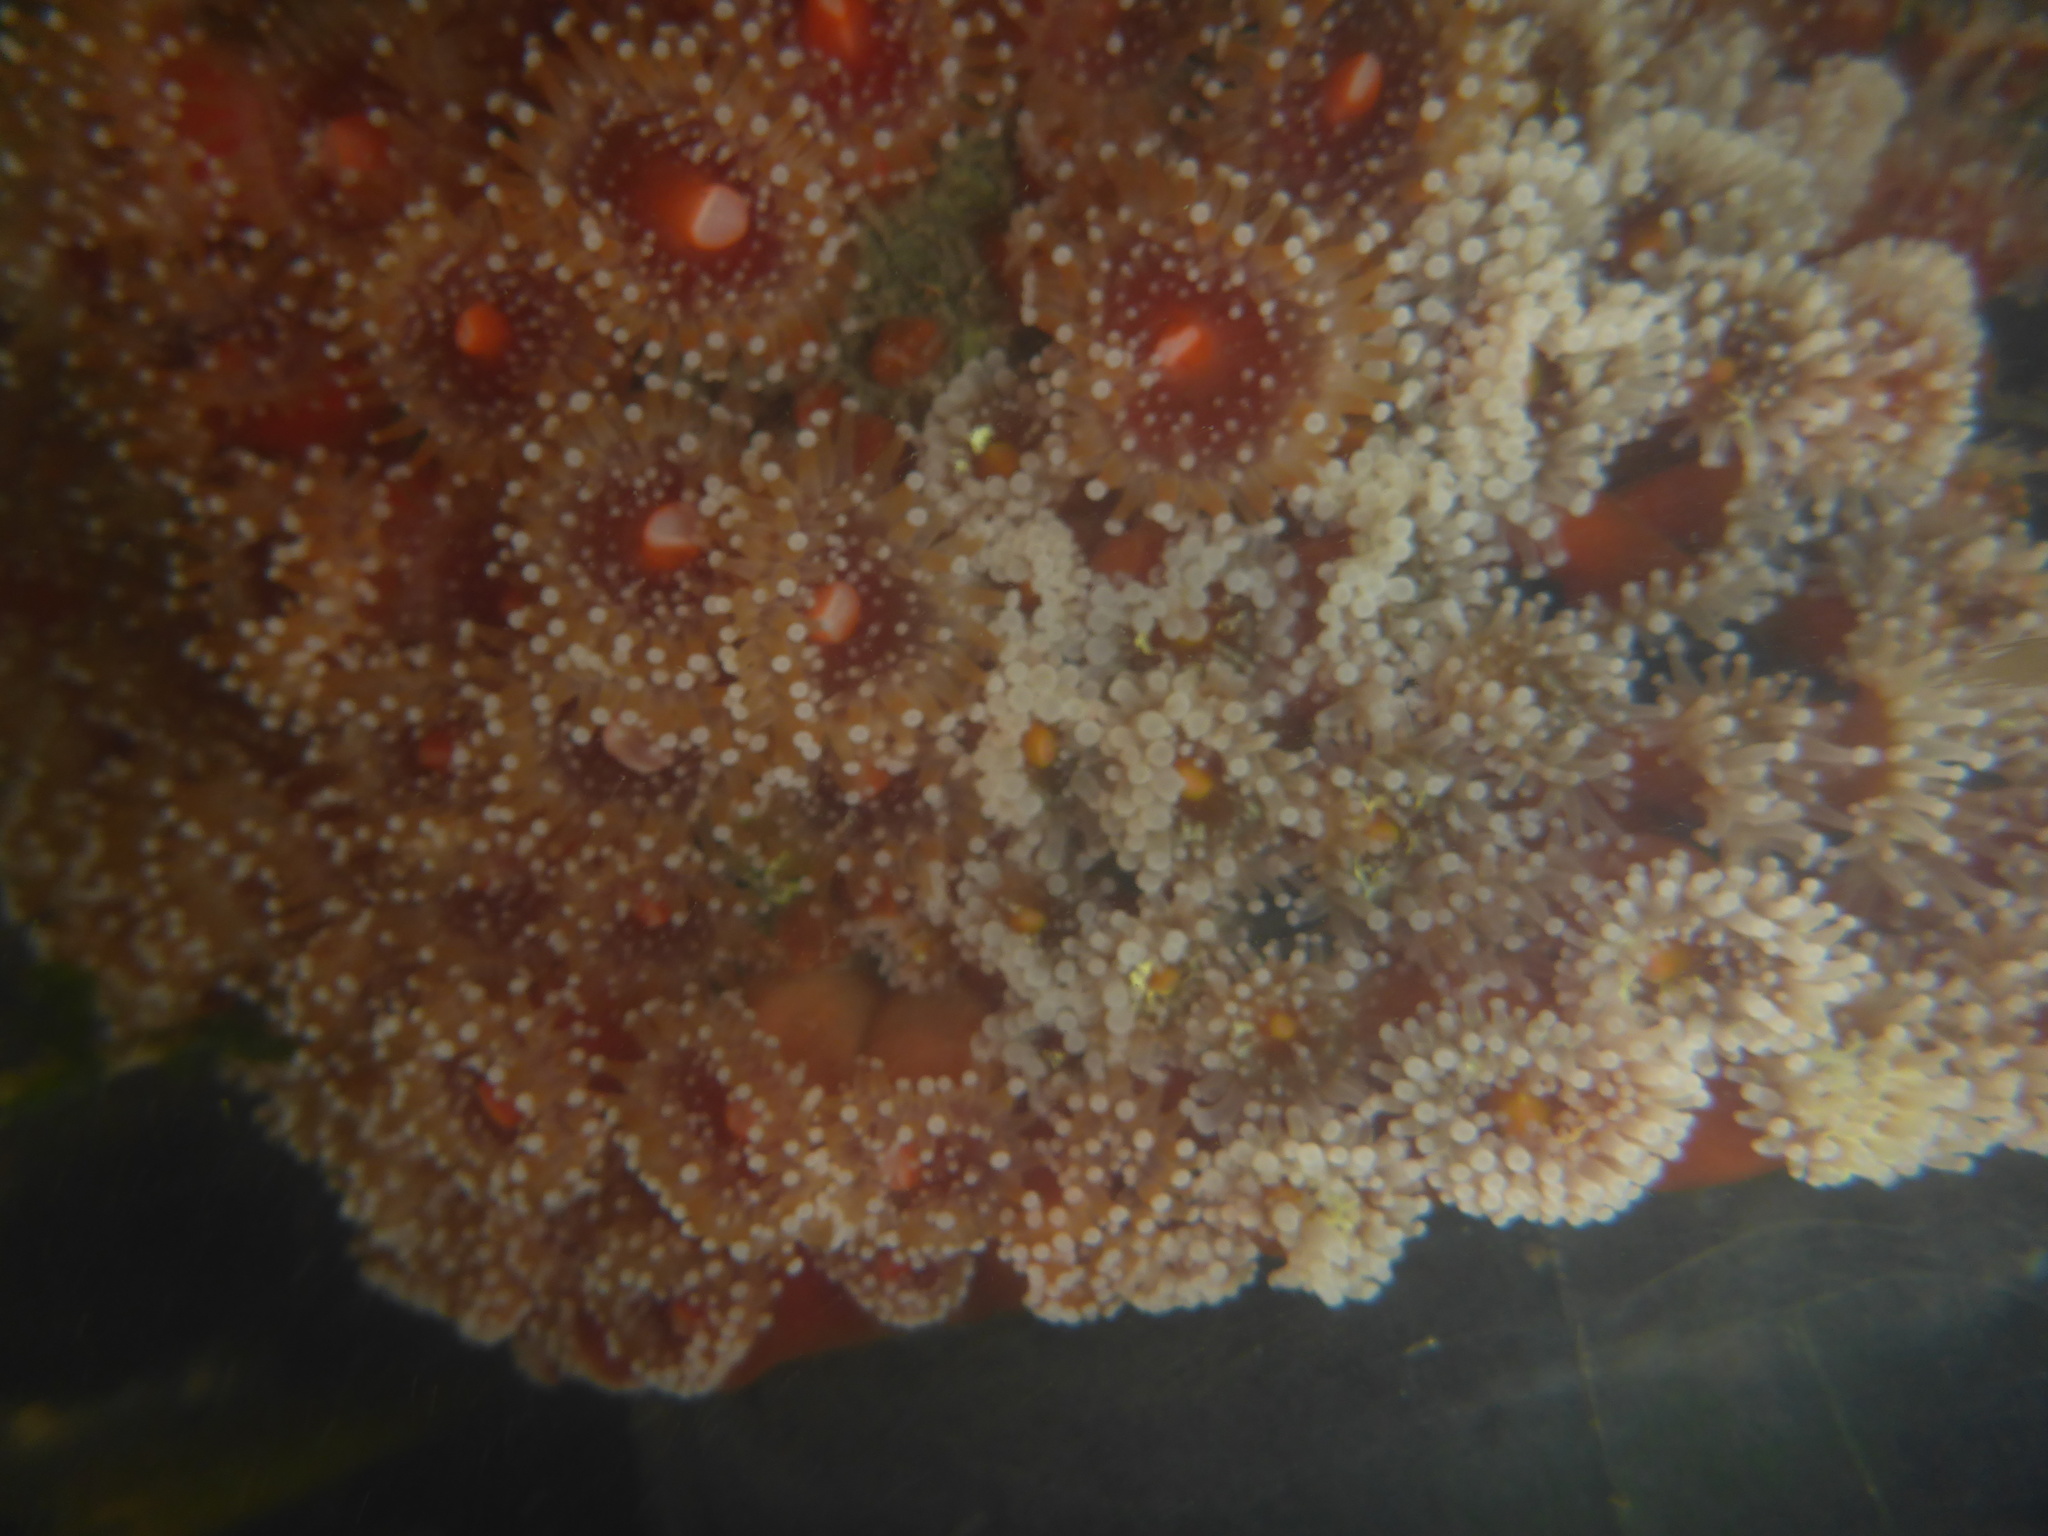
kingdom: Animalia
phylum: Cnidaria
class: Anthozoa
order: Corallimorpharia
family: Corallimorphidae
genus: Corynactis
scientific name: Corynactis californica
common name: Strawberry corallimorpharian
